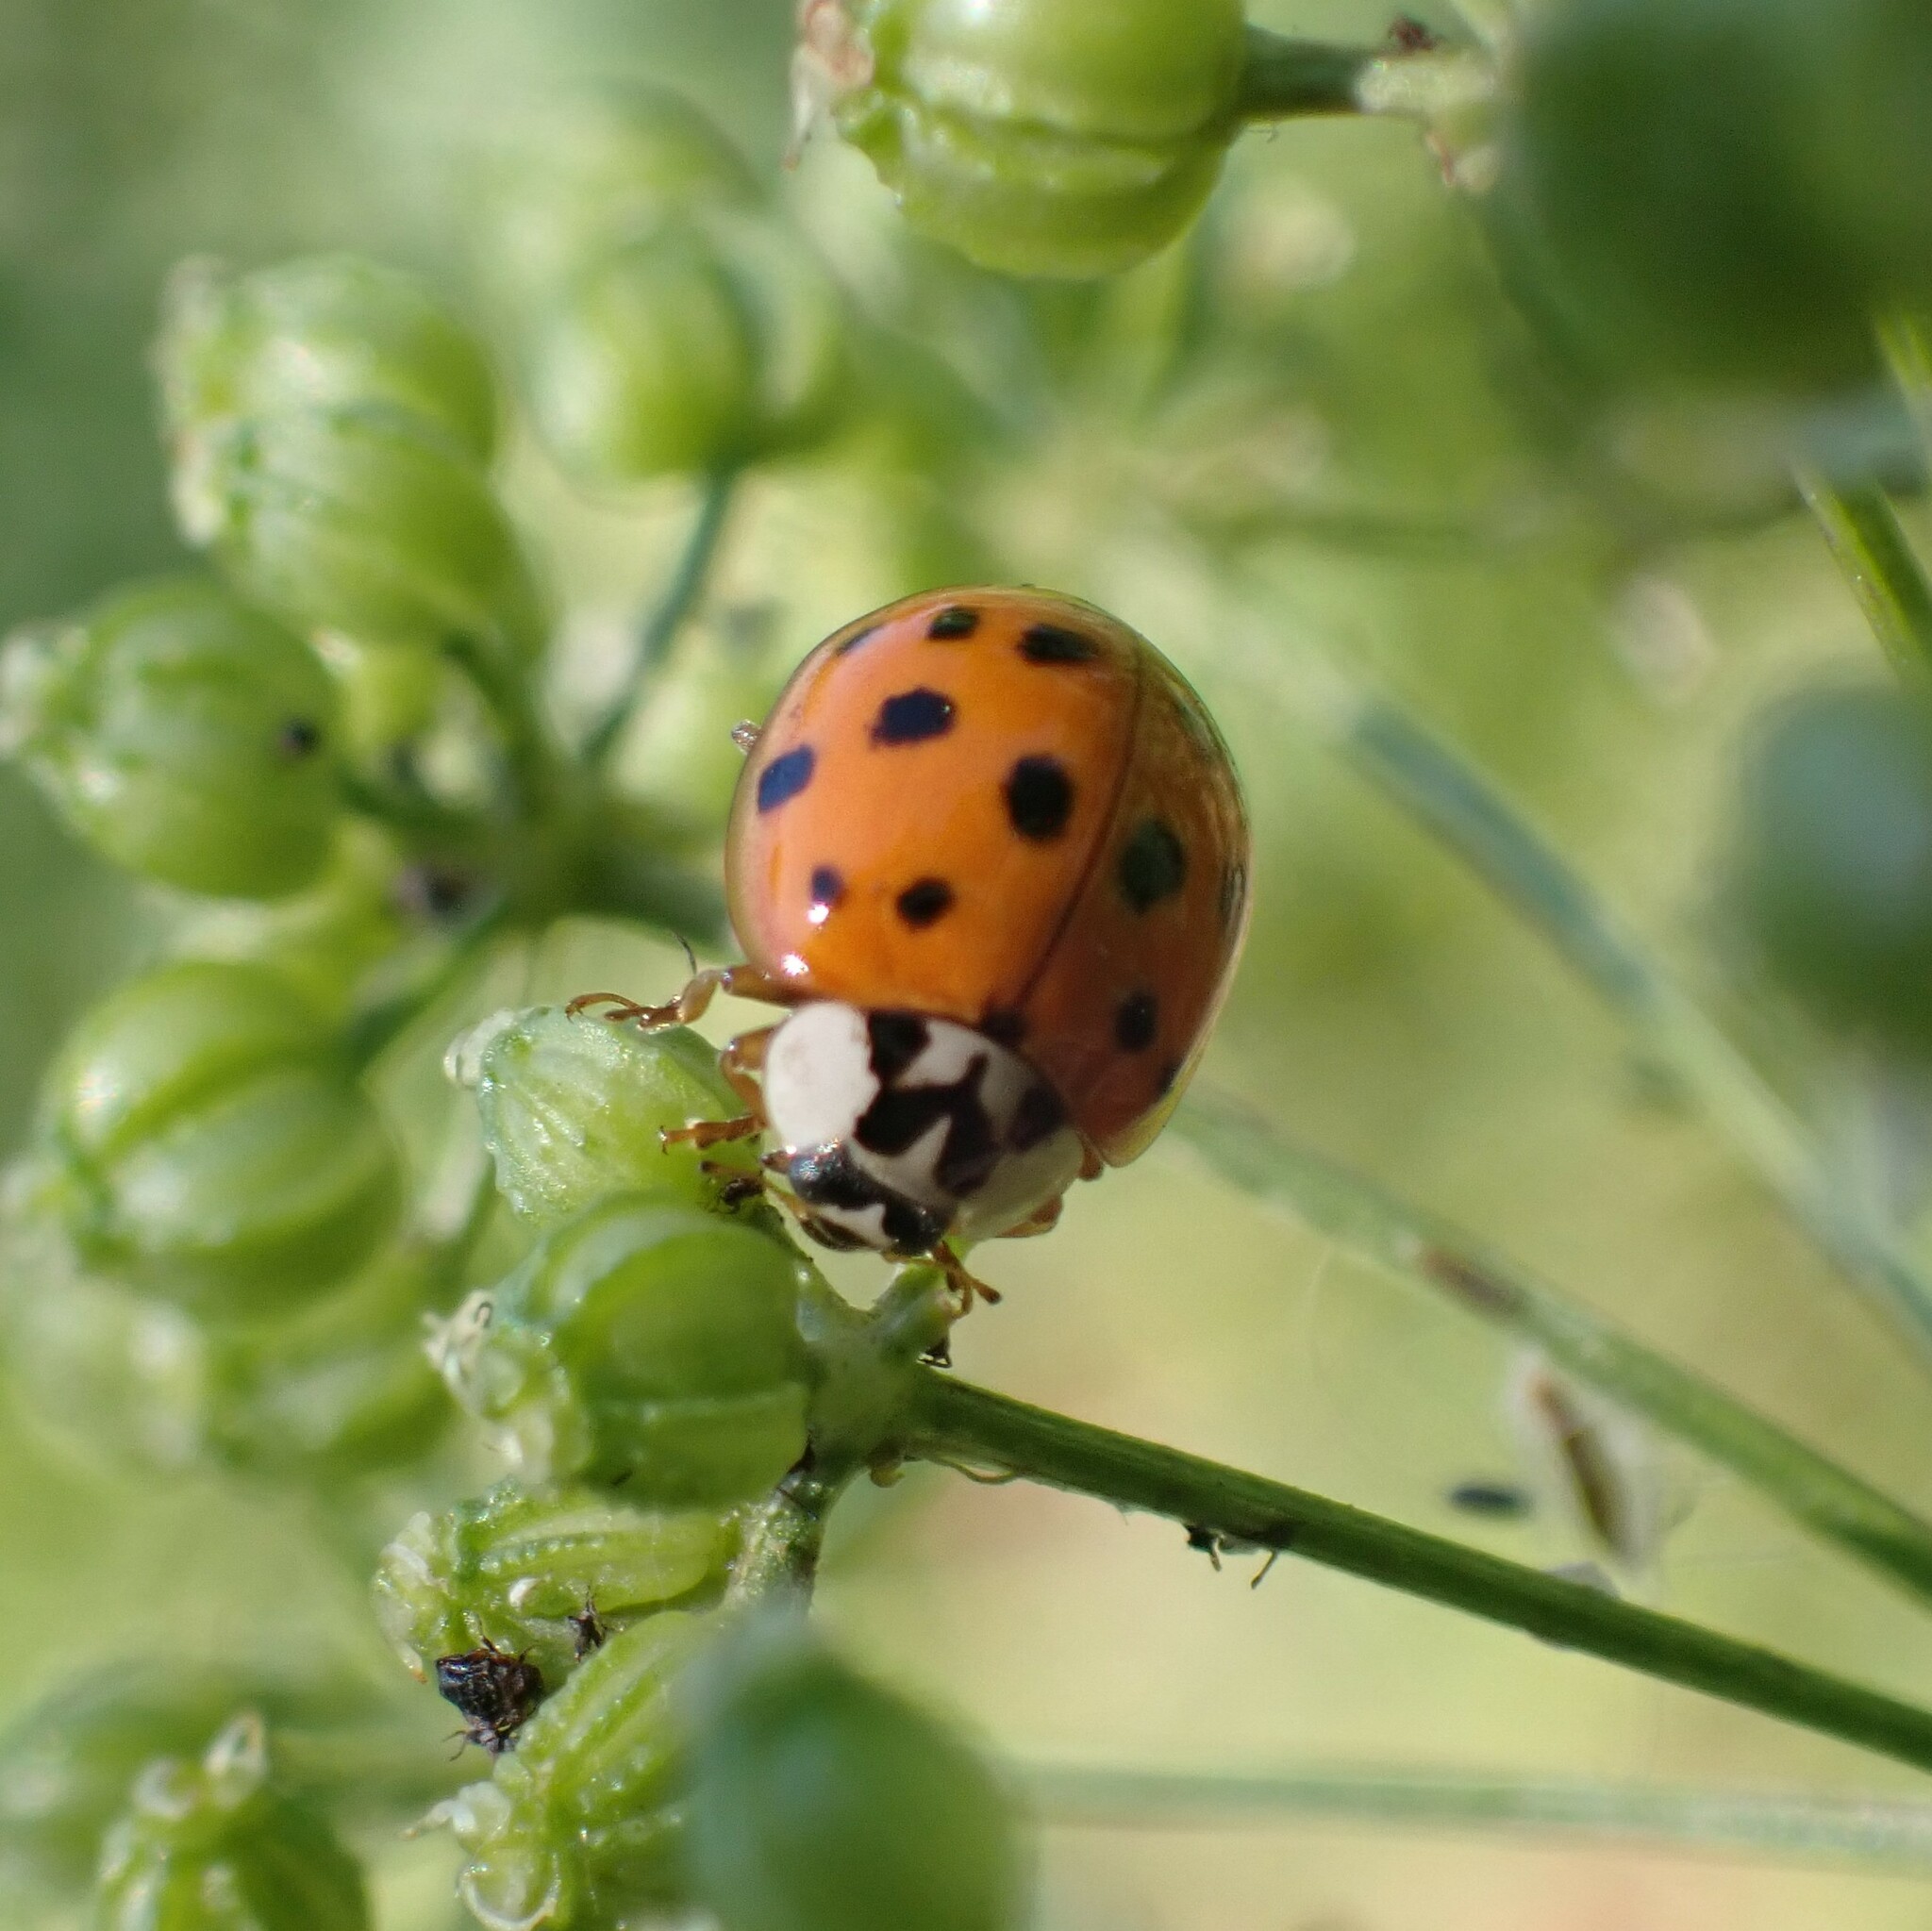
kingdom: Animalia
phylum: Arthropoda
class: Insecta
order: Coleoptera
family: Coccinellidae
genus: Harmonia
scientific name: Harmonia axyridis
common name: Harlequin ladybird
